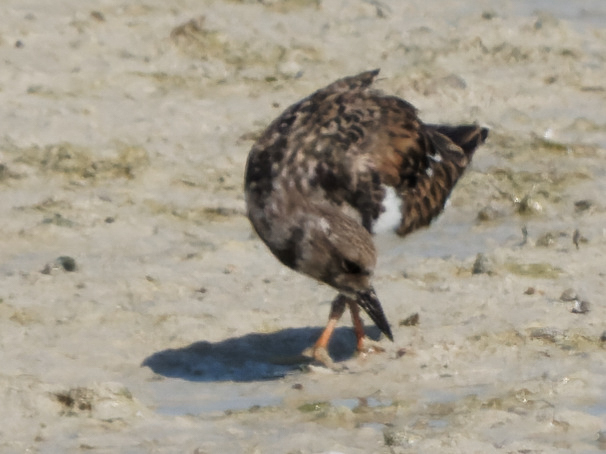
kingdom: Animalia
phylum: Chordata
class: Aves
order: Charadriiformes
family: Scolopacidae
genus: Arenaria
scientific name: Arenaria interpres
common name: Ruddy turnstone
